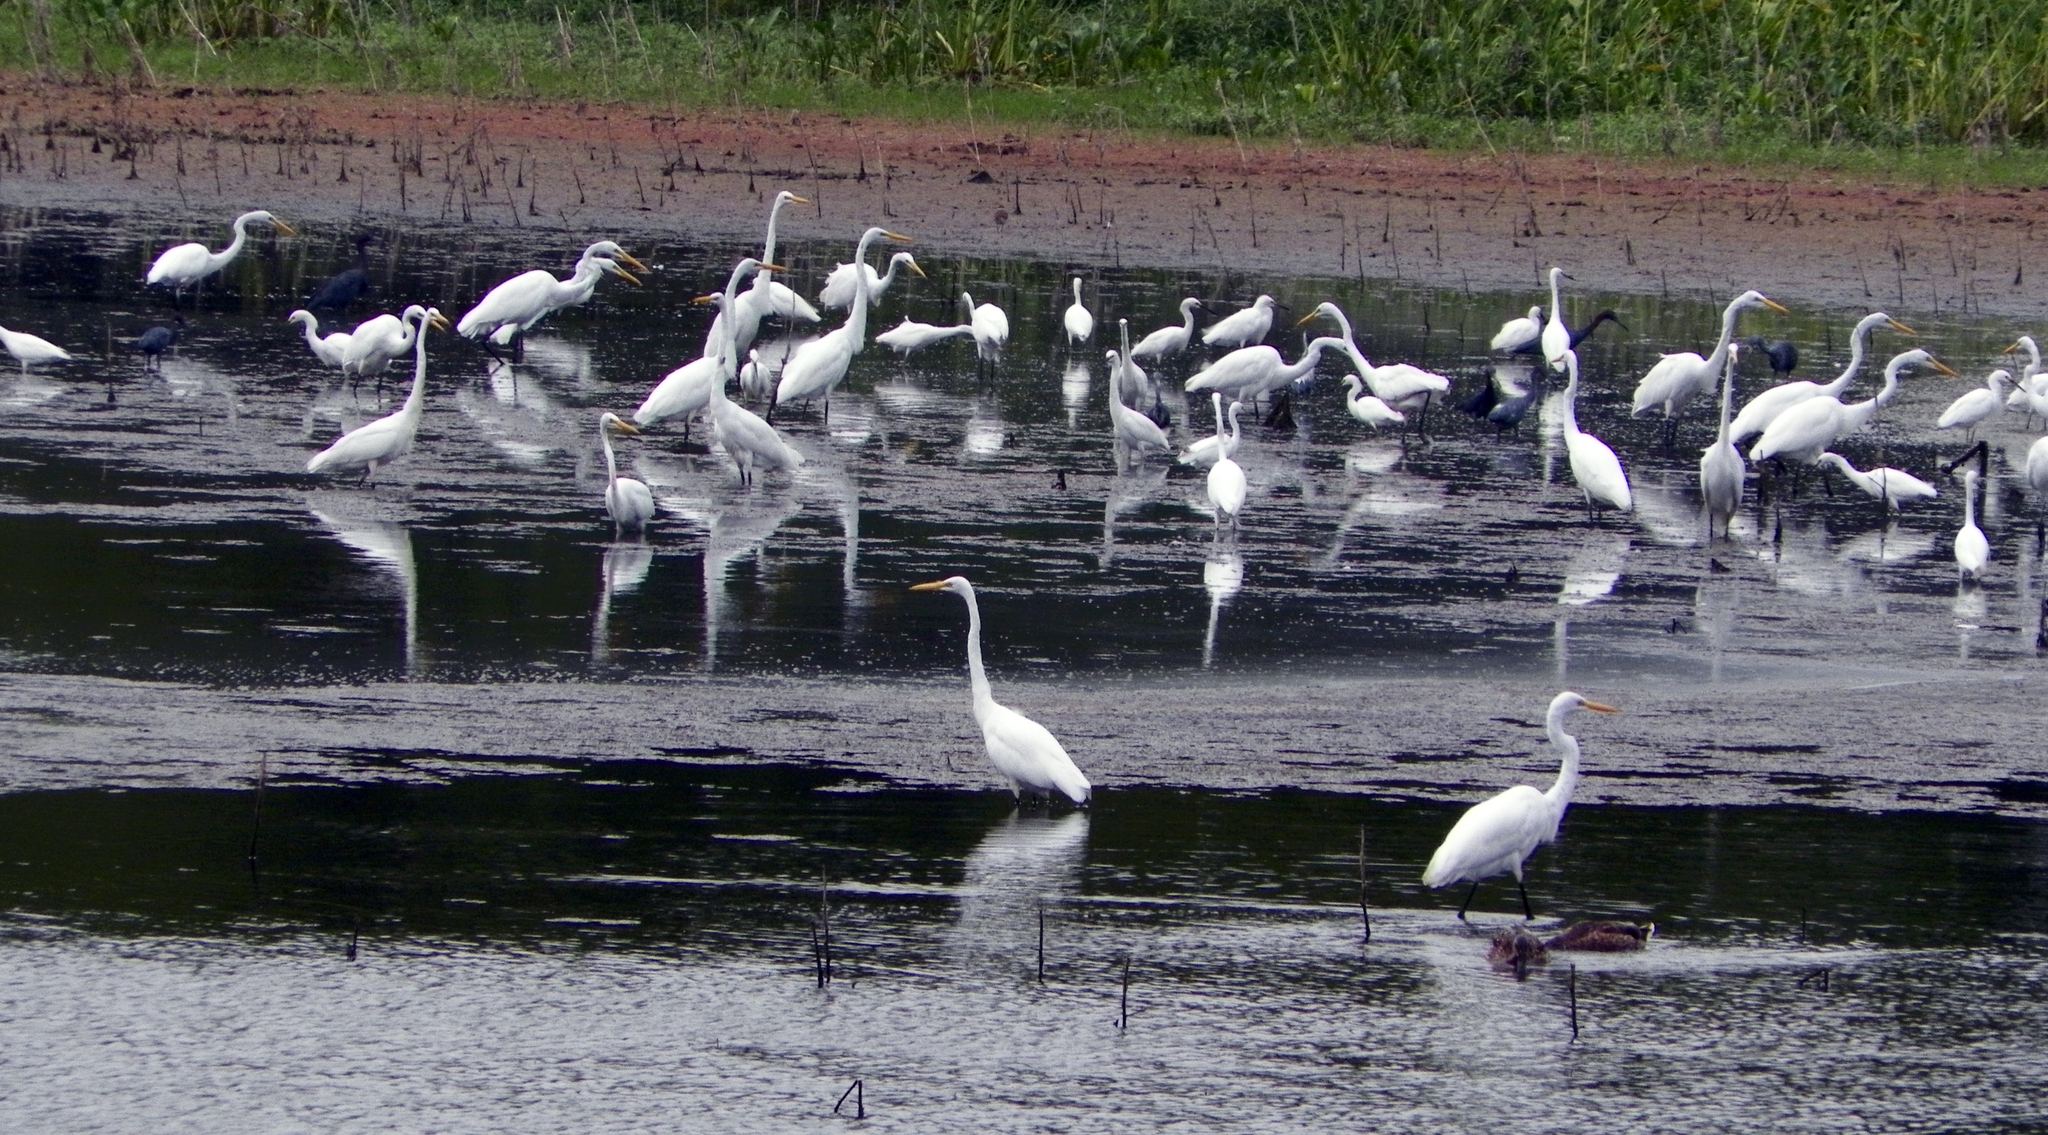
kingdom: Animalia
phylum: Chordata
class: Aves
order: Pelecaniformes
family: Ardeidae
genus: Ardea
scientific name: Ardea alba
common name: Great egret
